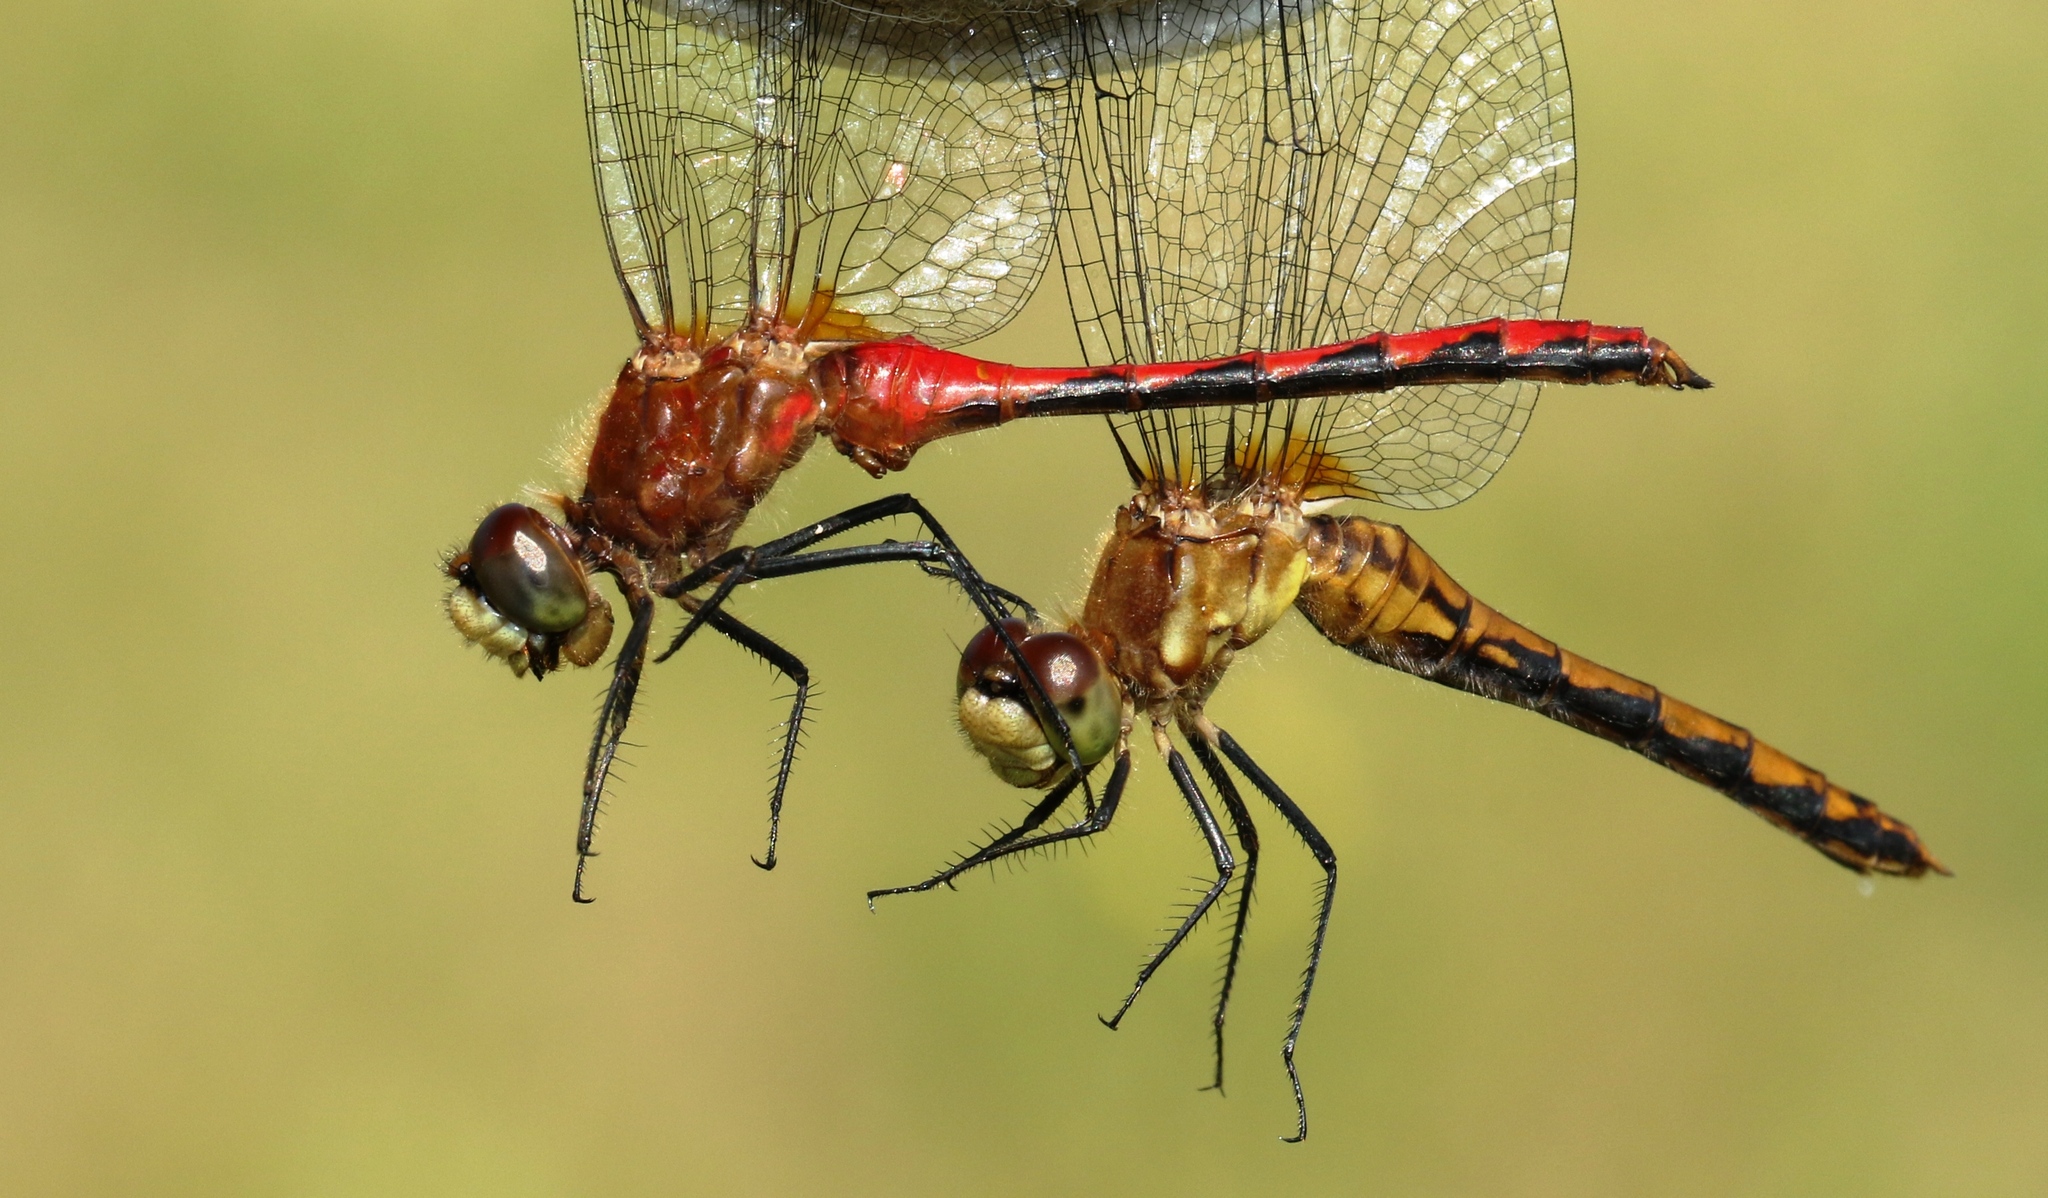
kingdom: Animalia
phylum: Arthropoda
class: Insecta
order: Odonata
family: Libellulidae
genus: Sympetrum
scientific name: Sympetrum obtrusum
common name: White-faced meadowhawk
